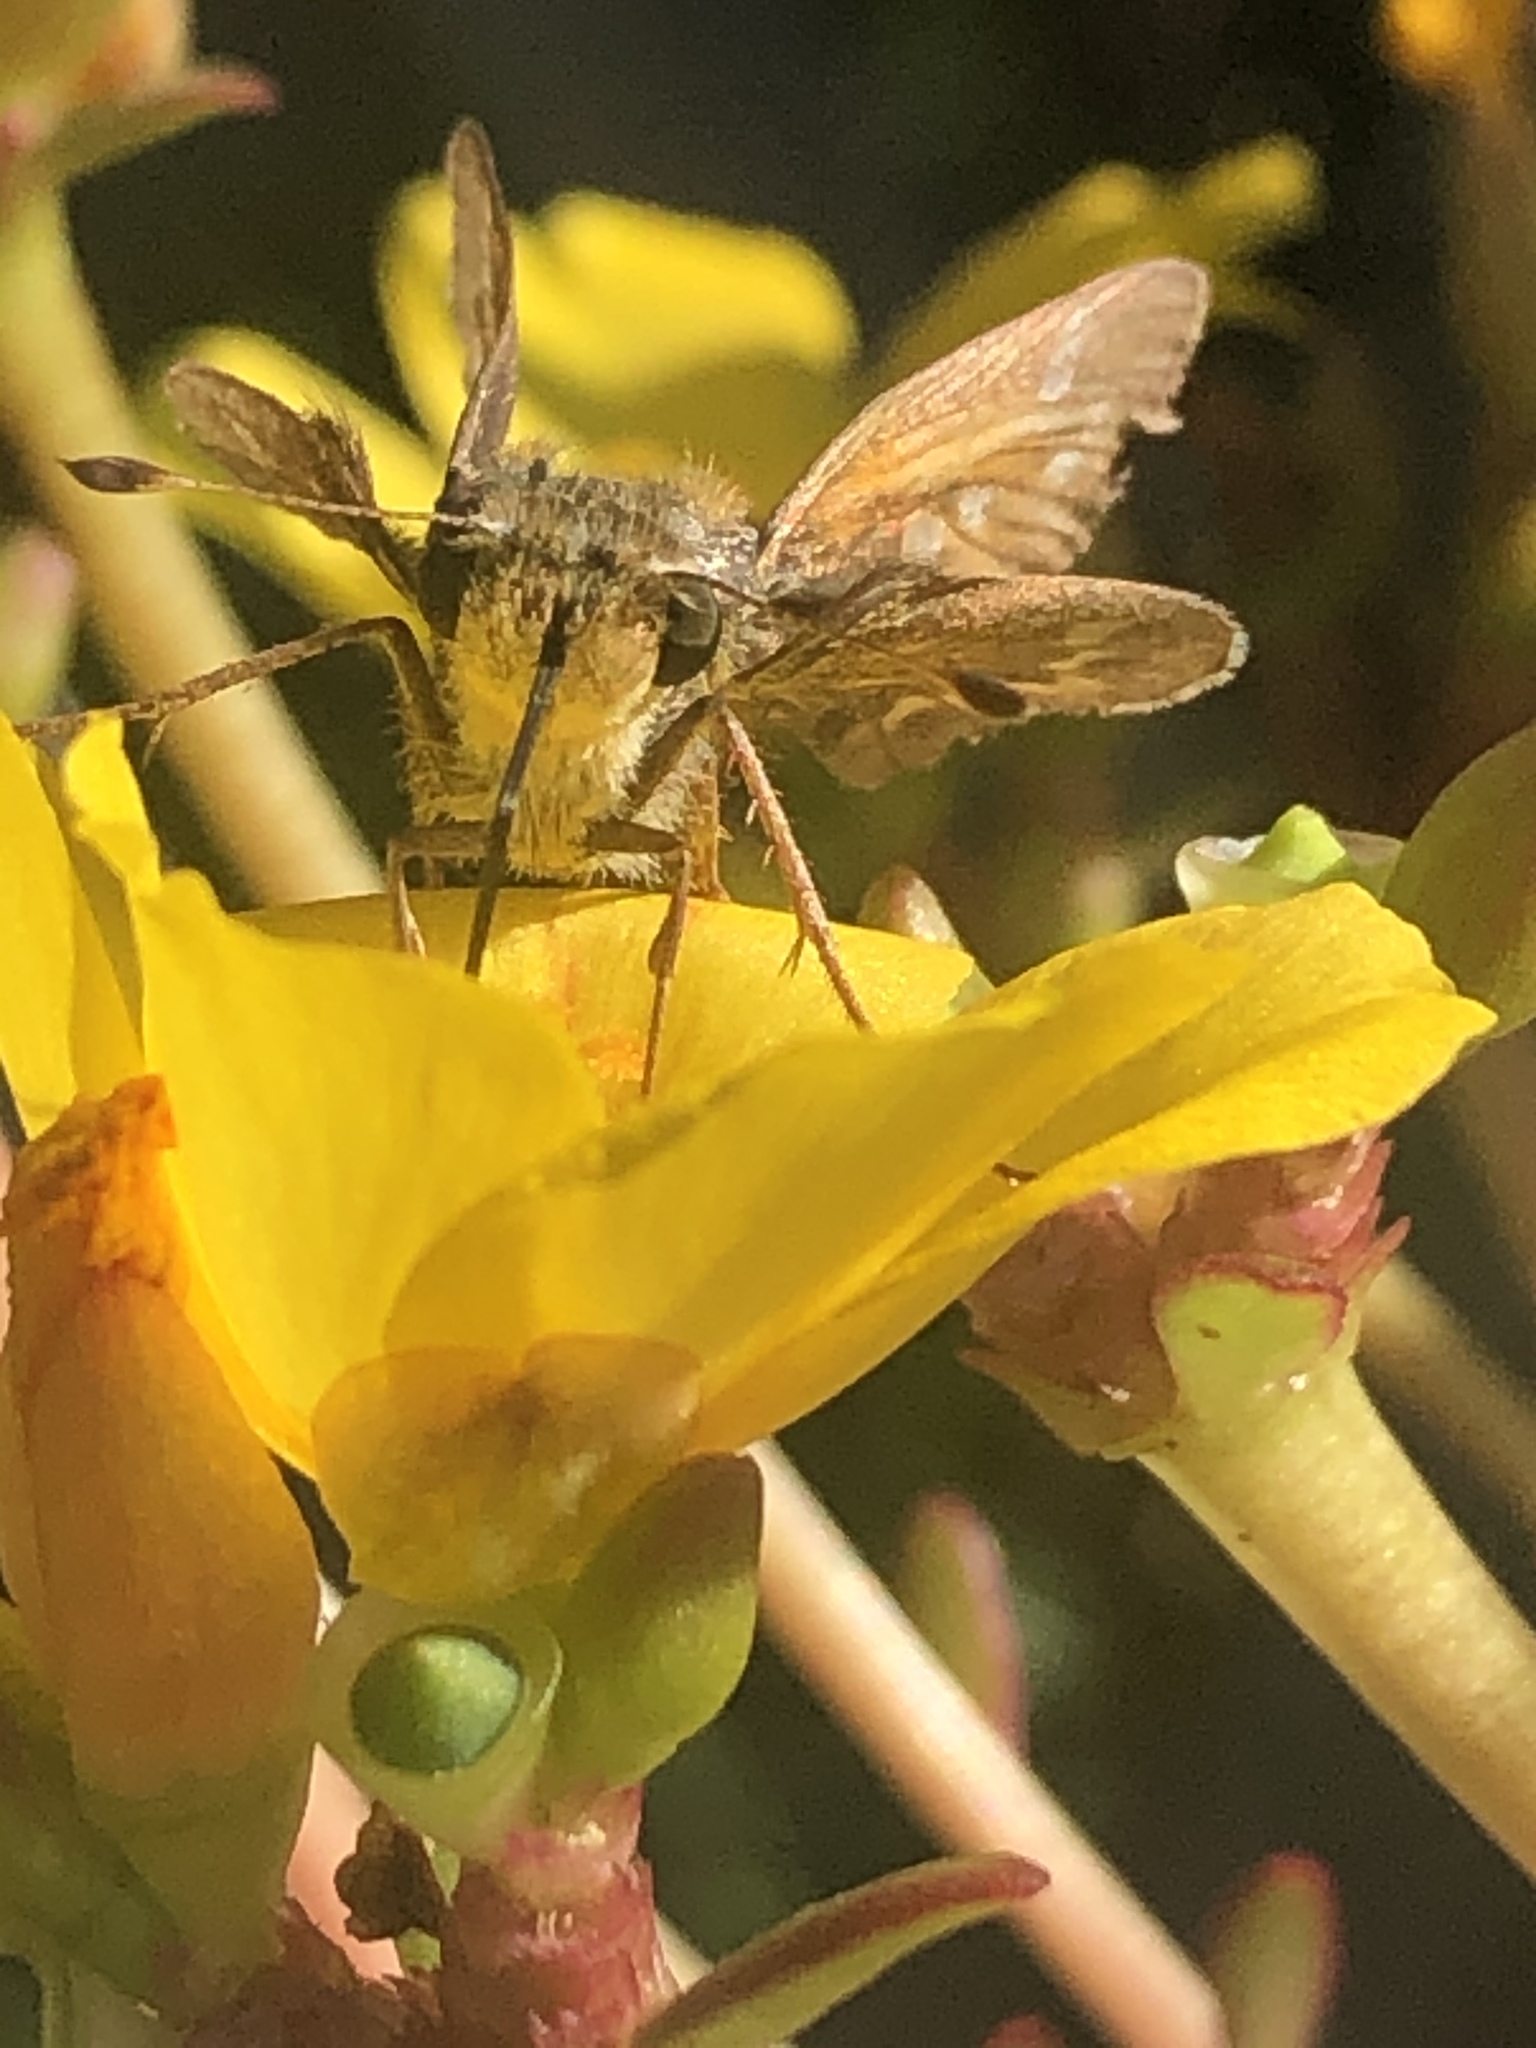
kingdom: Animalia
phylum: Arthropoda
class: Insecta
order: Lepidoptera
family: Hesperiidae
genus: Atalopedes
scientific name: Atalopedes
